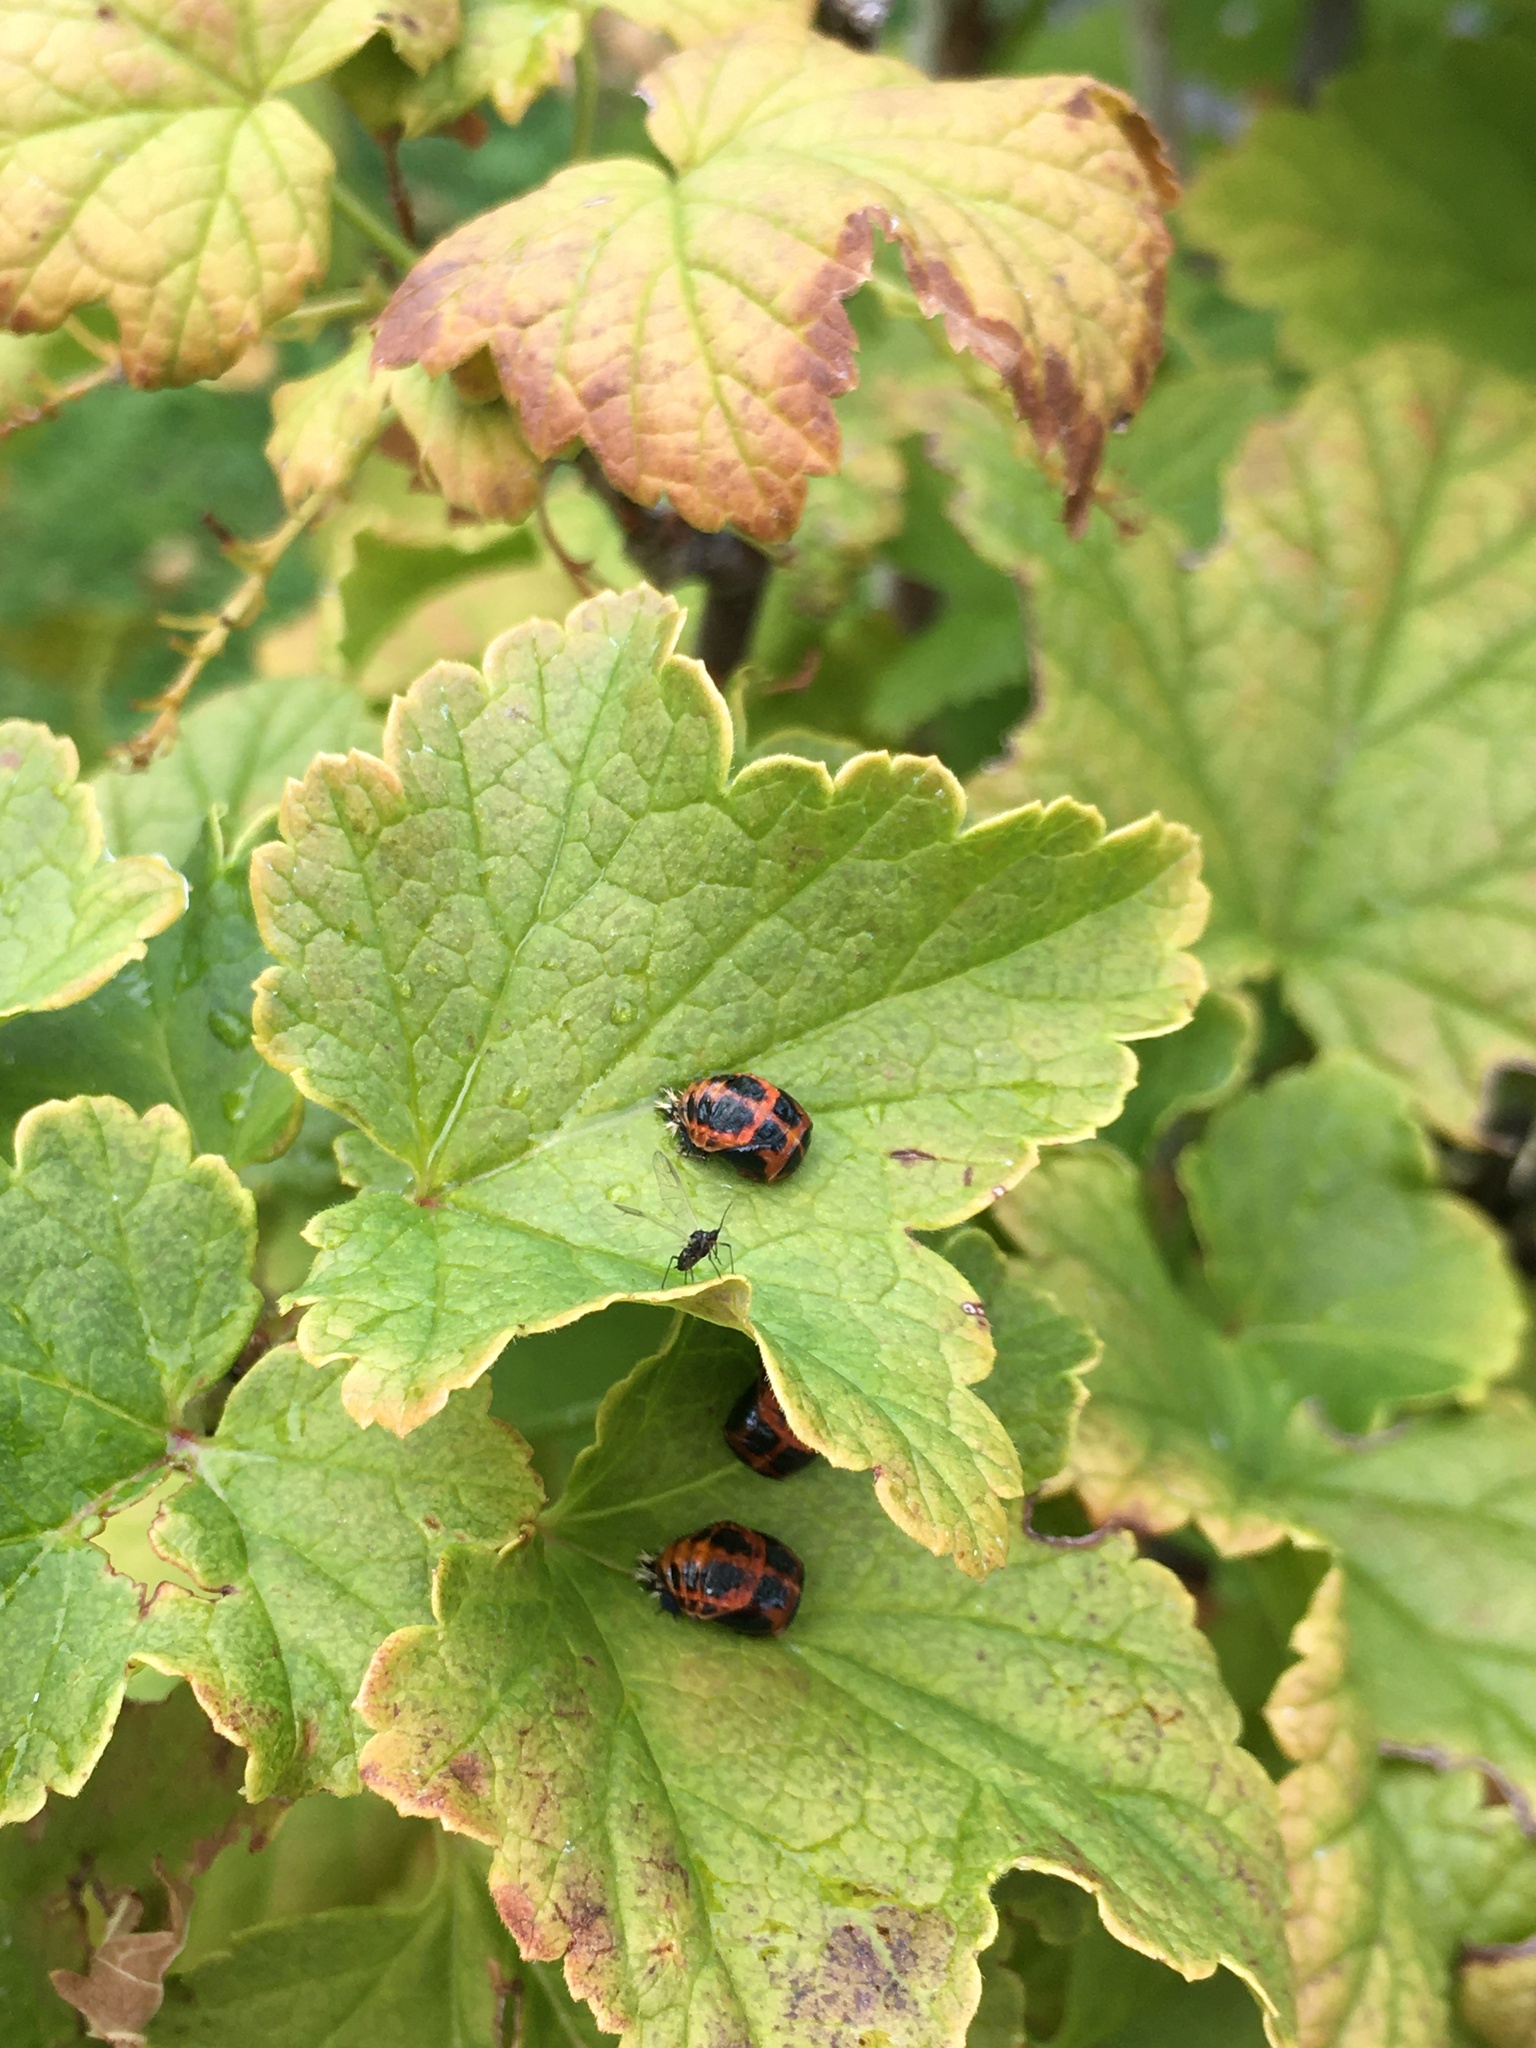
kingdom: Animalia
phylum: Arthropoda
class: Insecta
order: Coleoptera
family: Coccinellidae
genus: Harmonia
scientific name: Harmonia axyridis
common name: Harlequin ladybird
